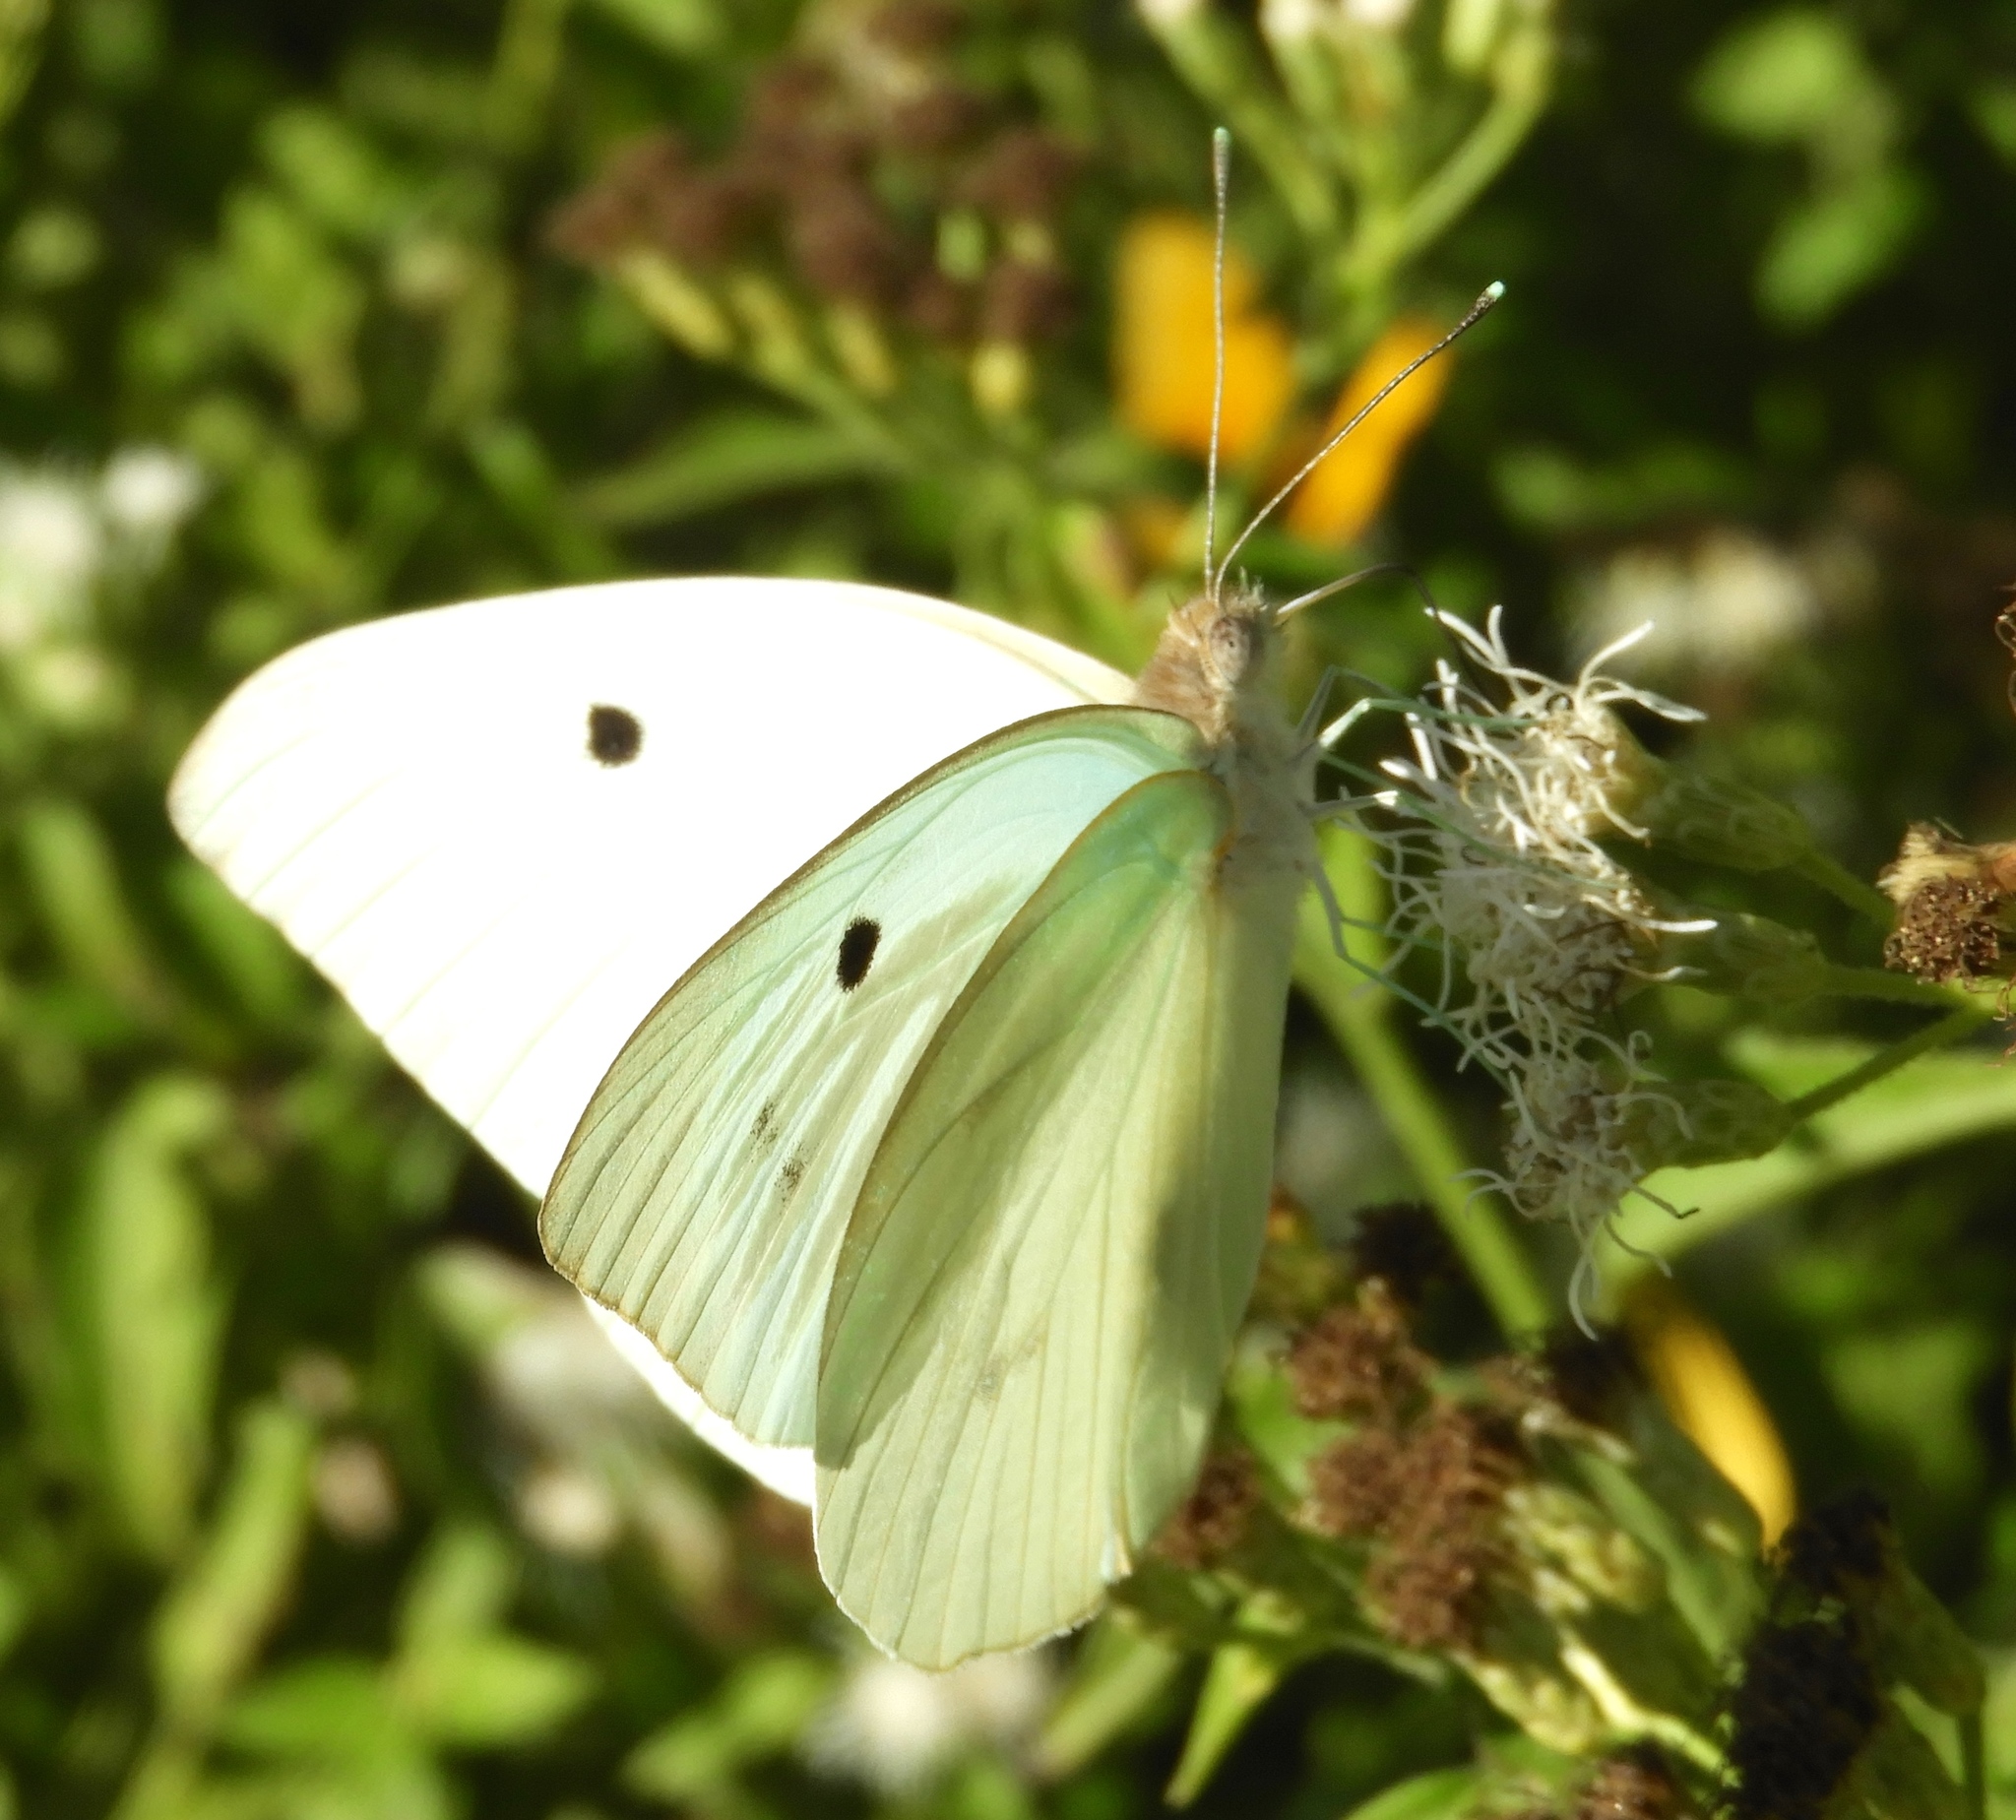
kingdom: Animalia
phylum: Arthropoda
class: Insecta
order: Lepidoptera
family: Pieridae
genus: Ganyra
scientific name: Ganyra josephina
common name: Giant white
